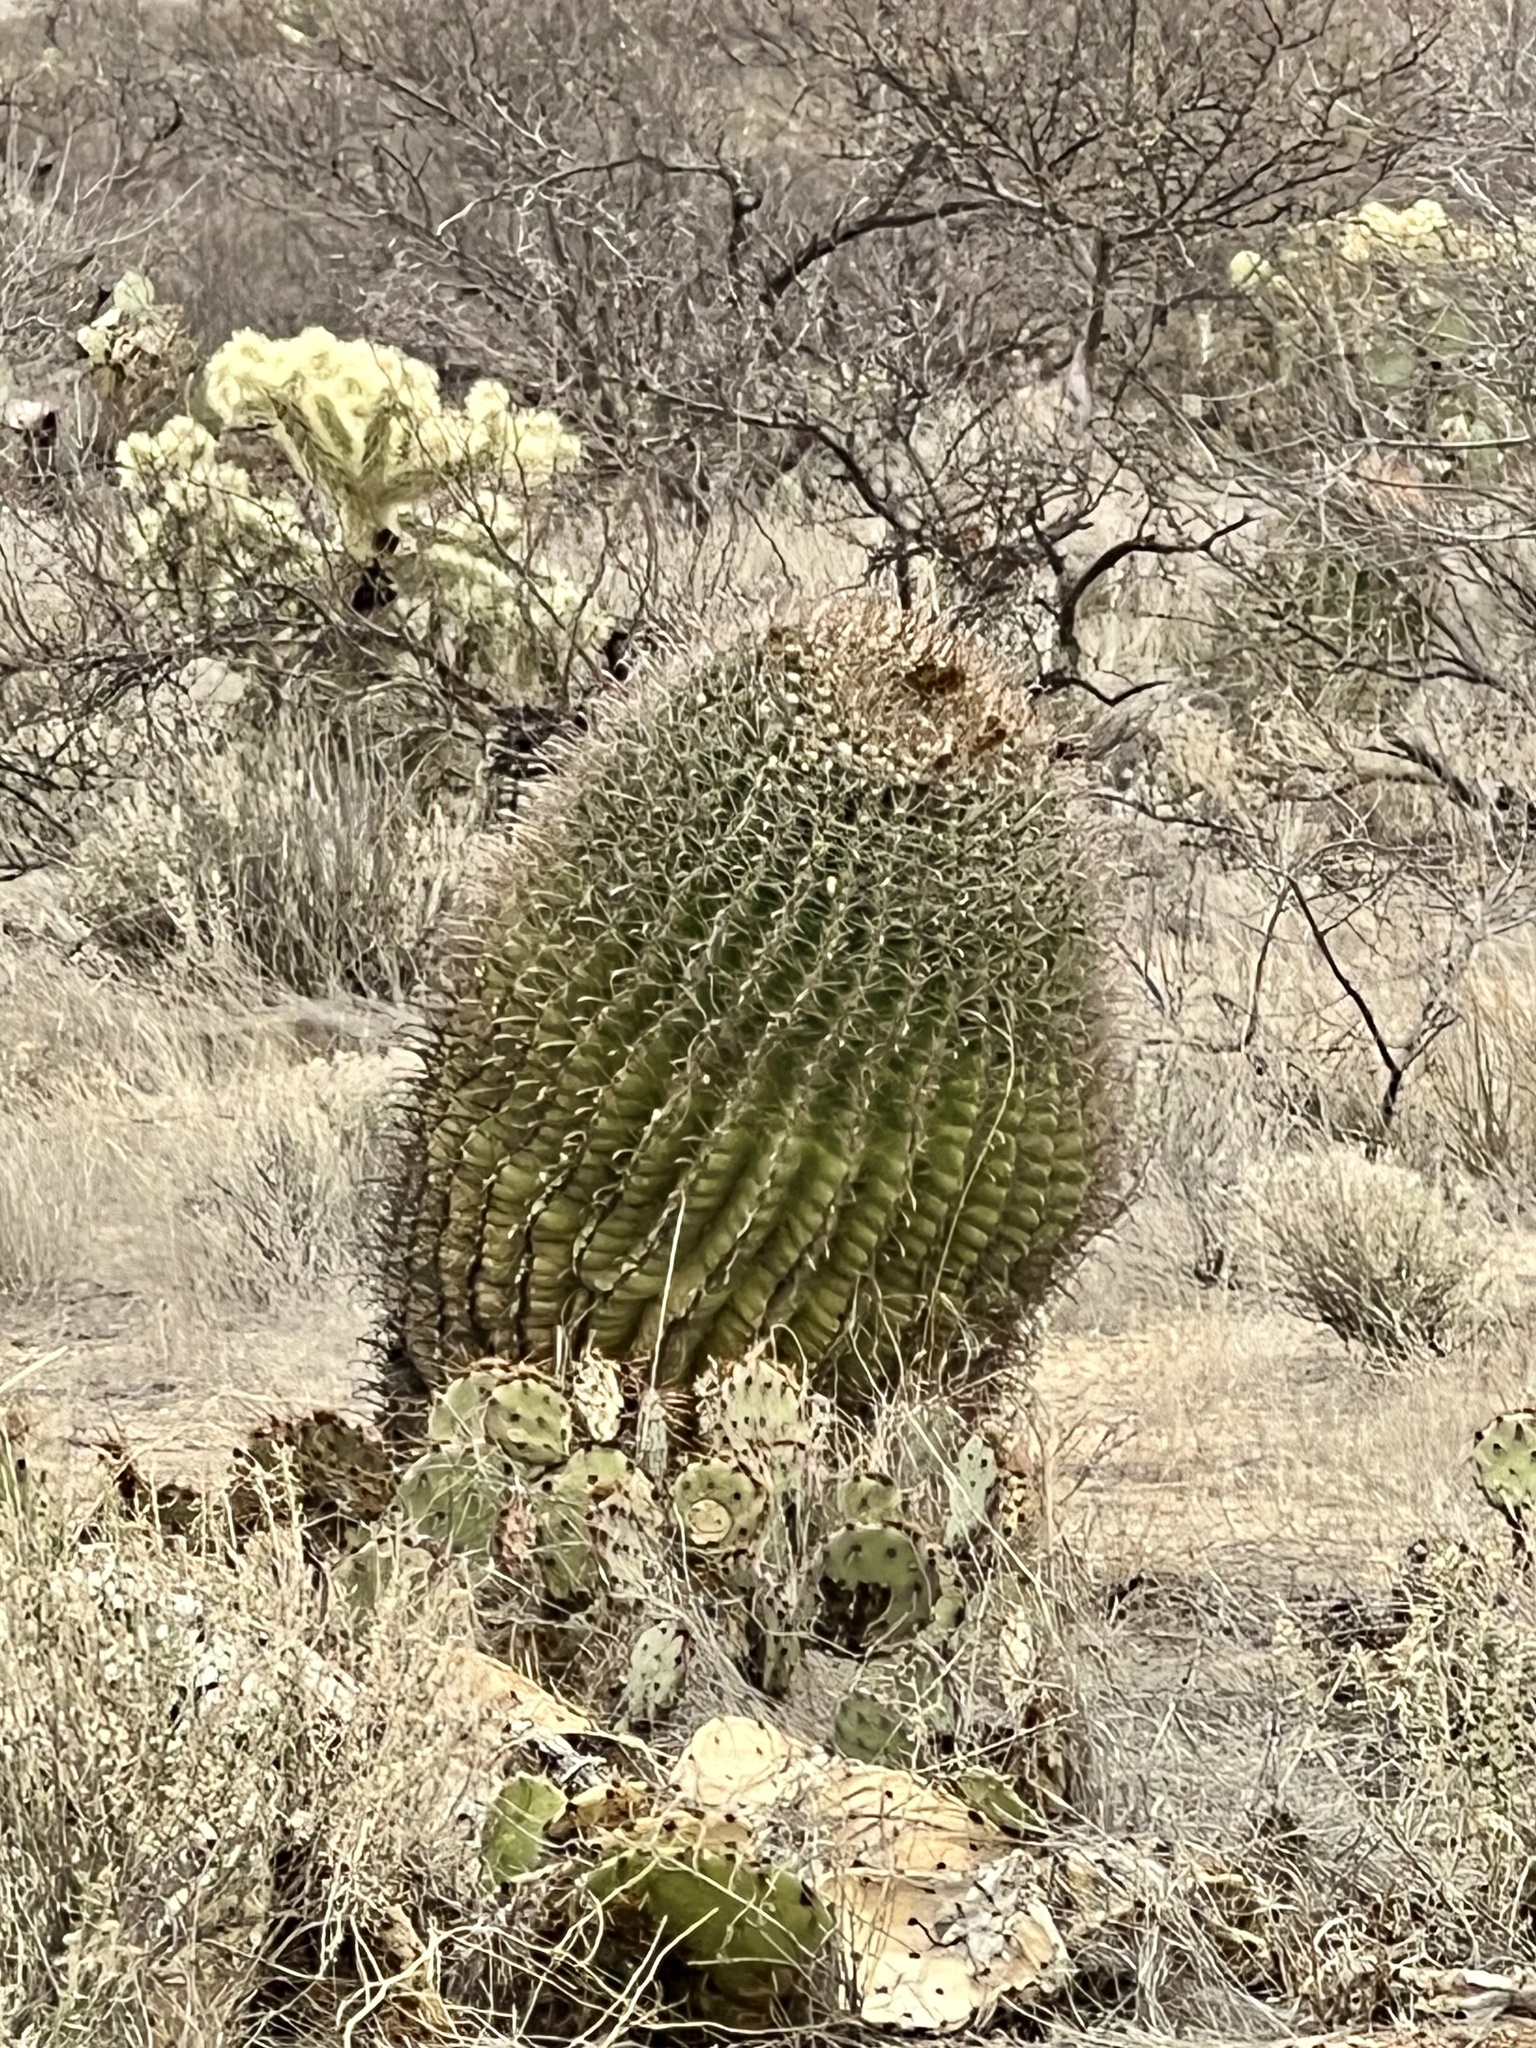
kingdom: Plantae
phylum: Tracheophyta
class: Magnoliopsida
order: Caryophyllales
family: Cactaceae
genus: Ferocactus
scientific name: Ferocactus wislizeni
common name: Candy barrel cactus
